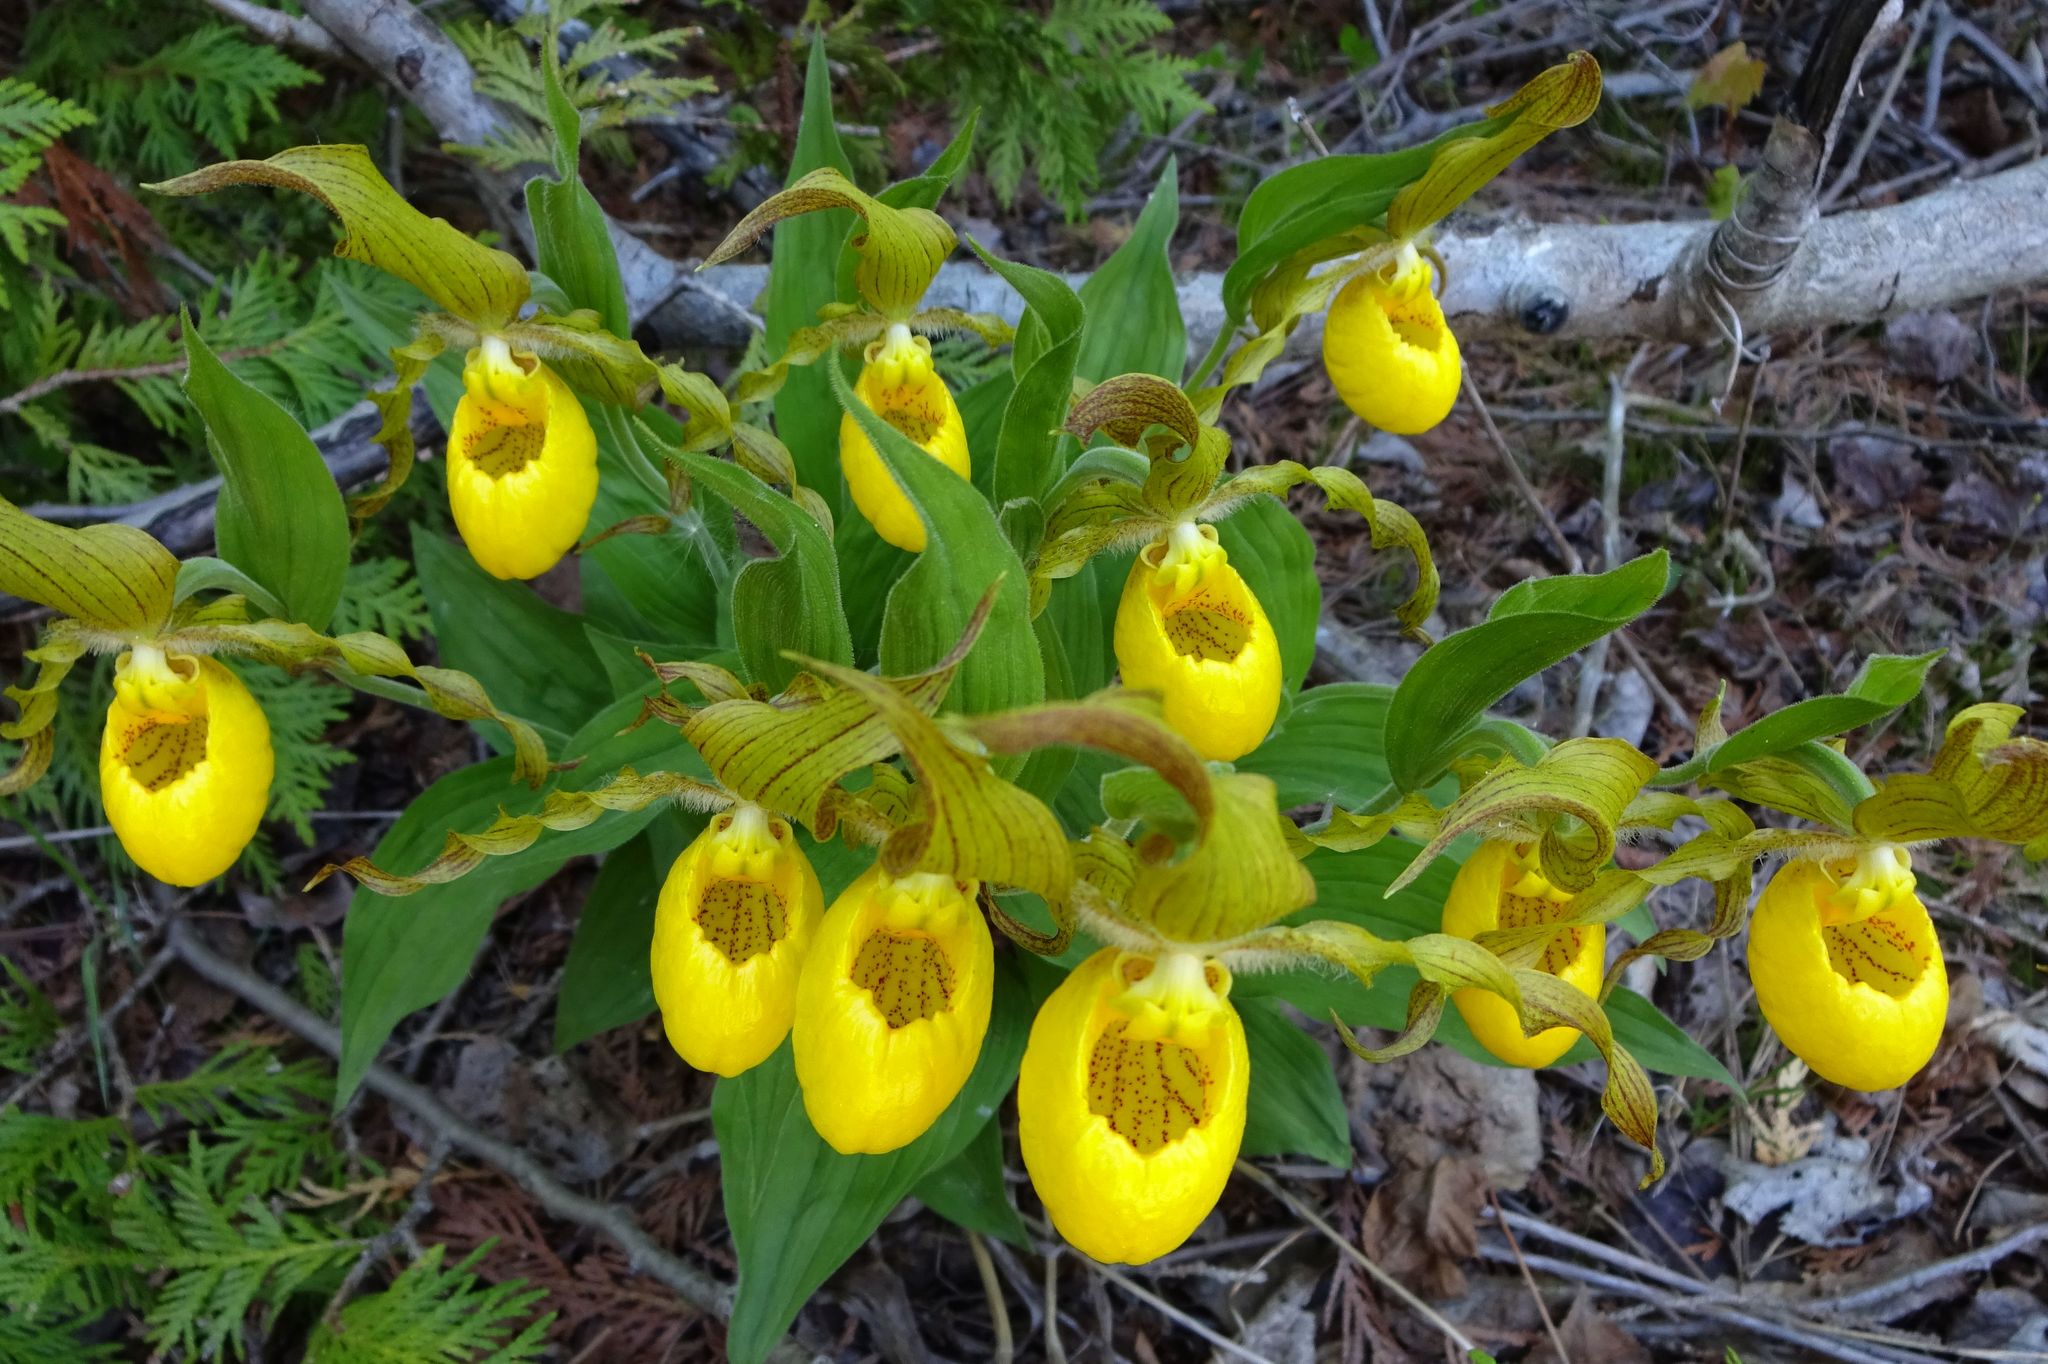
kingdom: Plantae
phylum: Tracheophyta
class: Liliopsida
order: Asparagales
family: Orchidaceae
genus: Cypripedium
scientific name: Cypripedium parviflorum
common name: American yellow lady's-slipper
